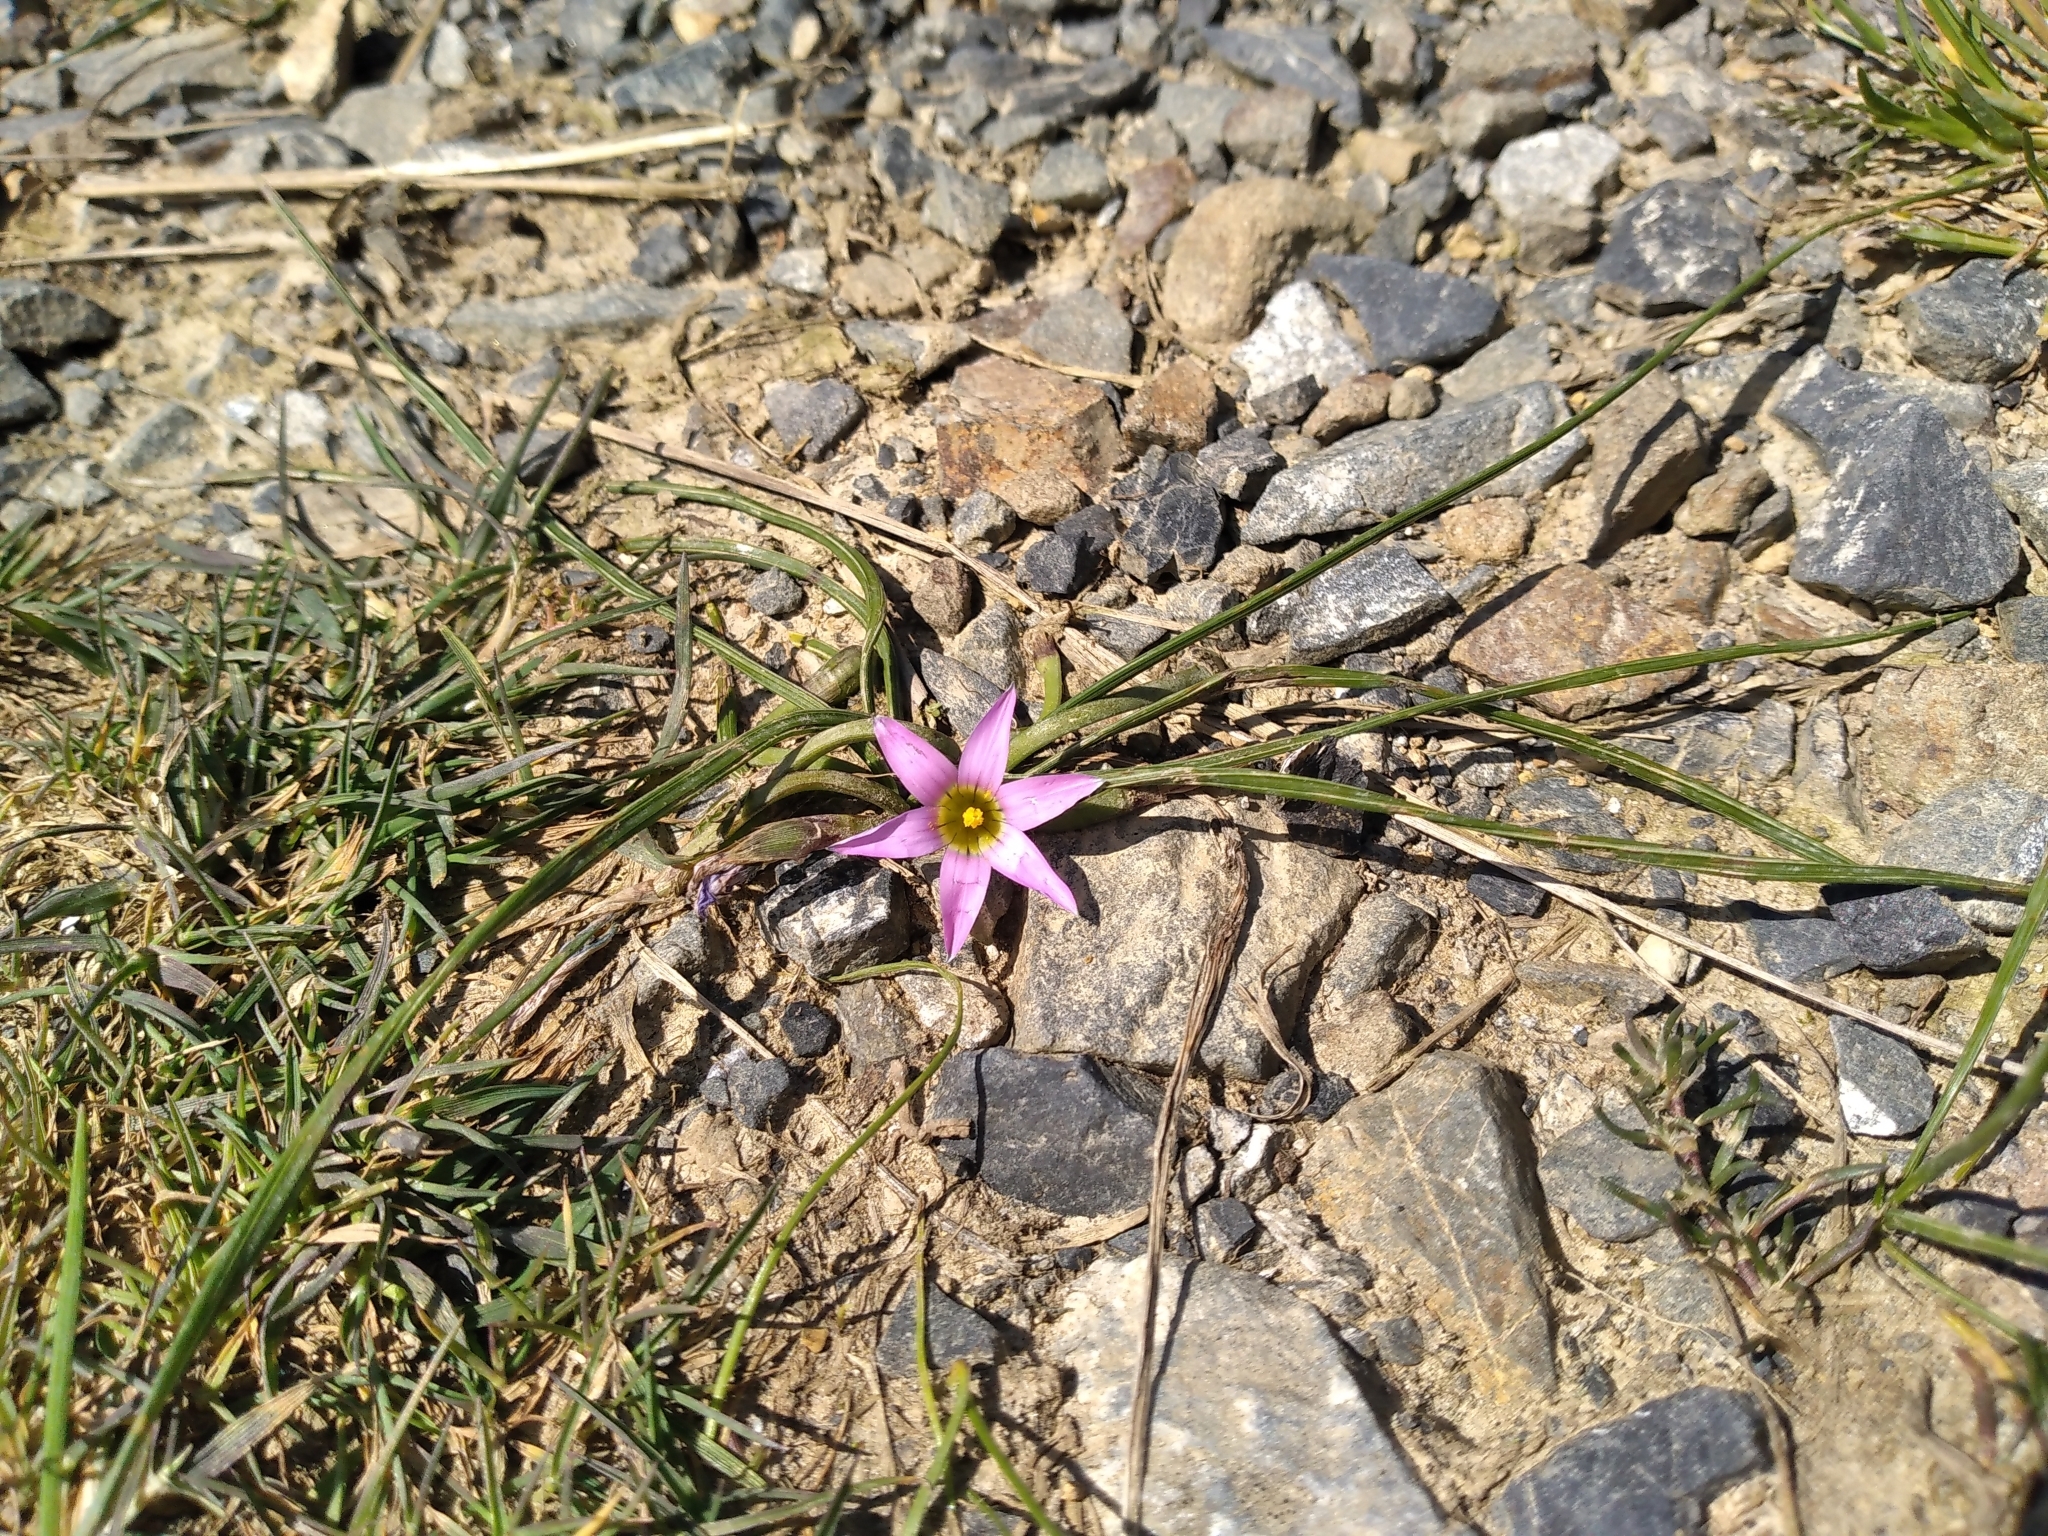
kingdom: Plantae
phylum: Tracheophyta
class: Liliopsida
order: Asparagales
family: Iridaceae
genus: Romulea
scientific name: Romulea rosea
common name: Oniongrass
